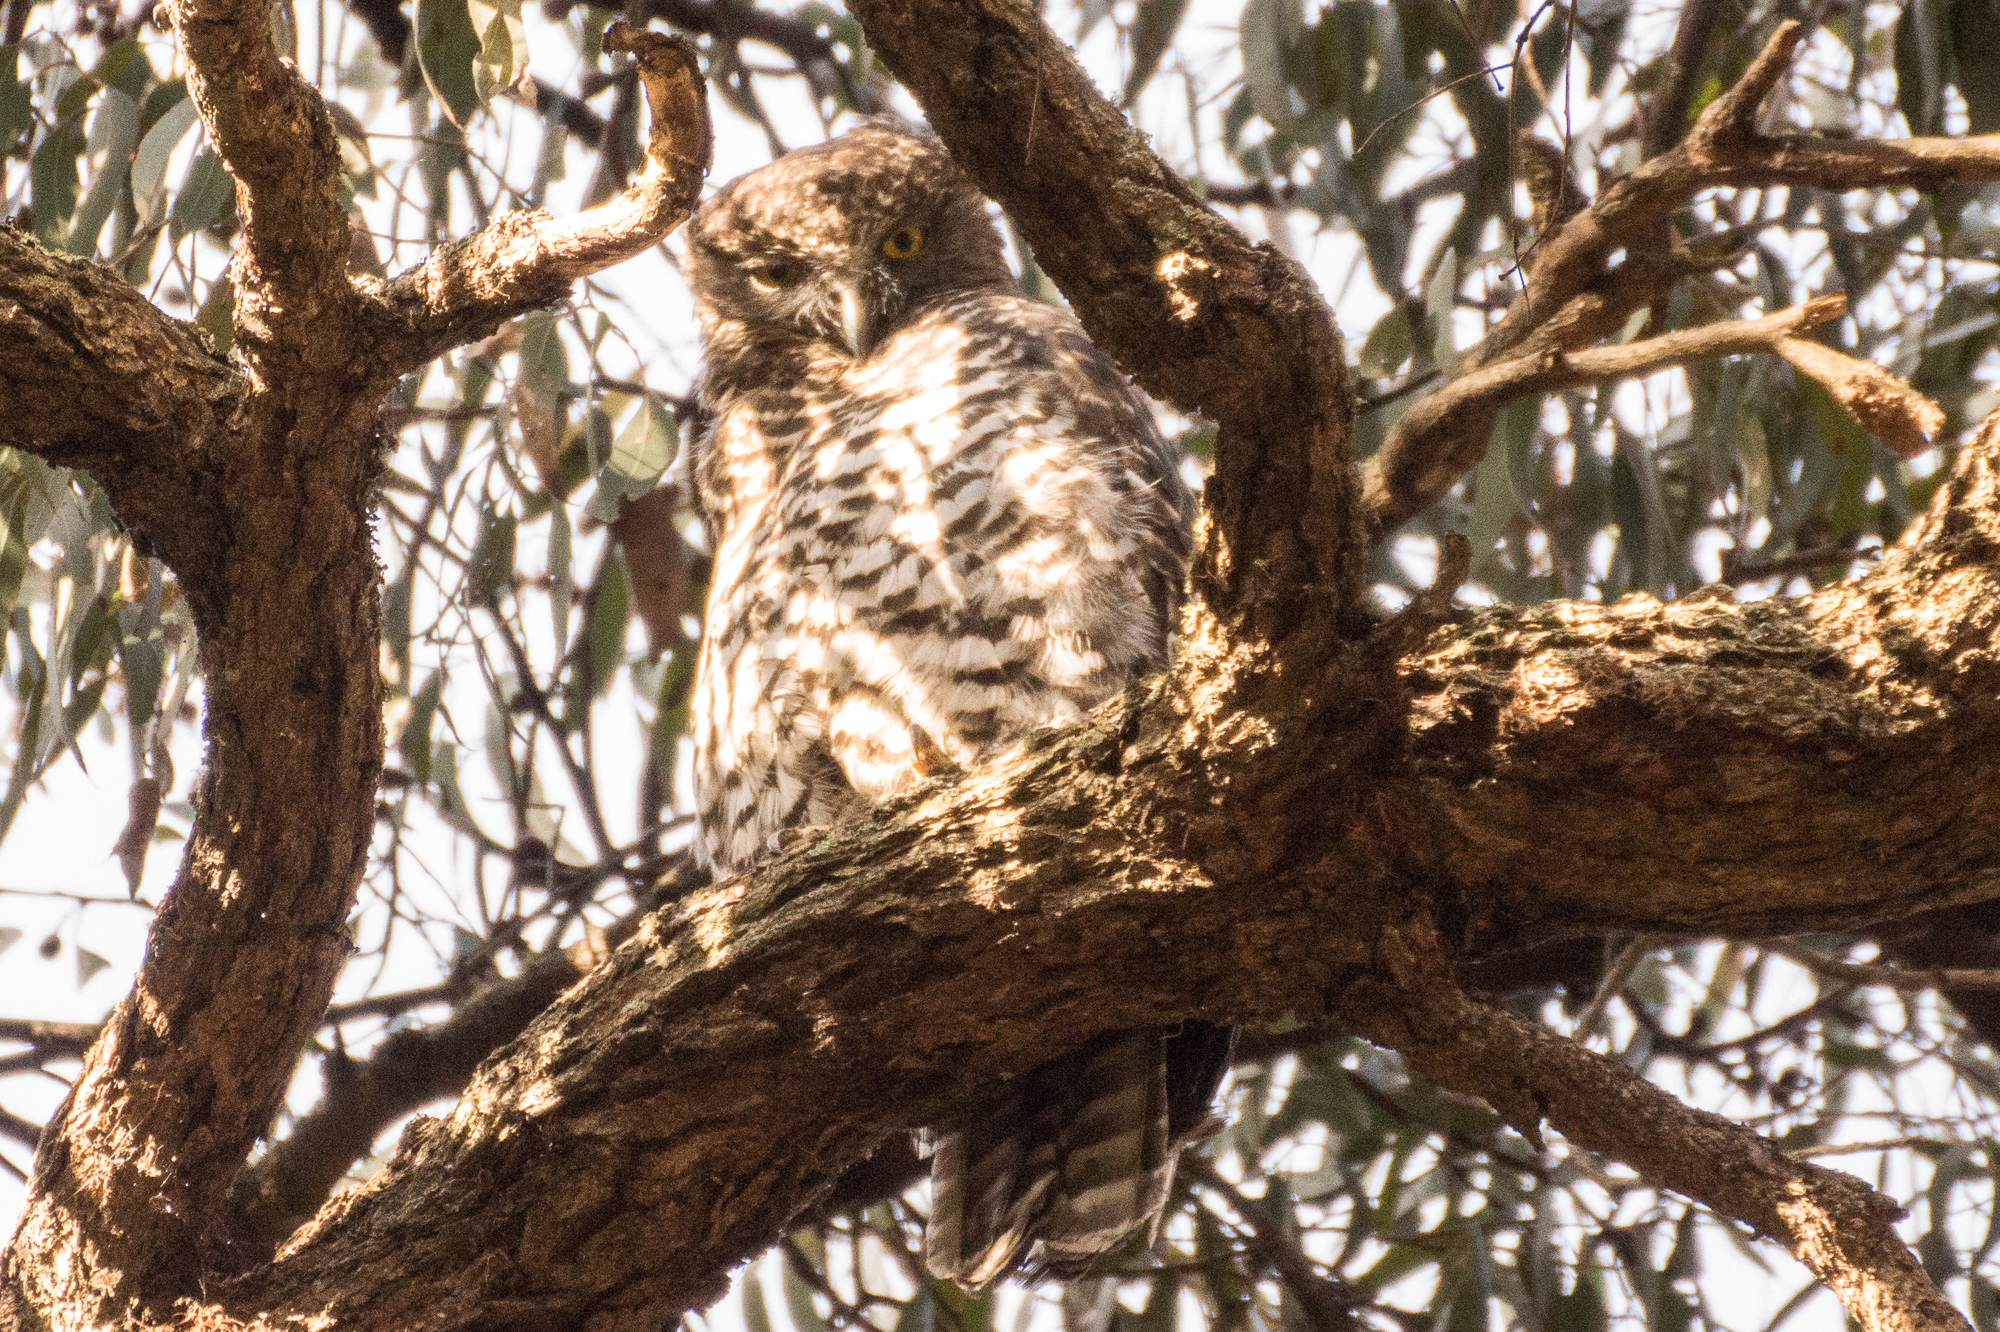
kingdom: Animalia
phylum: Chordata
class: Aves
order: Strigiformes
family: Strigidae
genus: Ninox
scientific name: Ninox strenua
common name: Powerful owl
